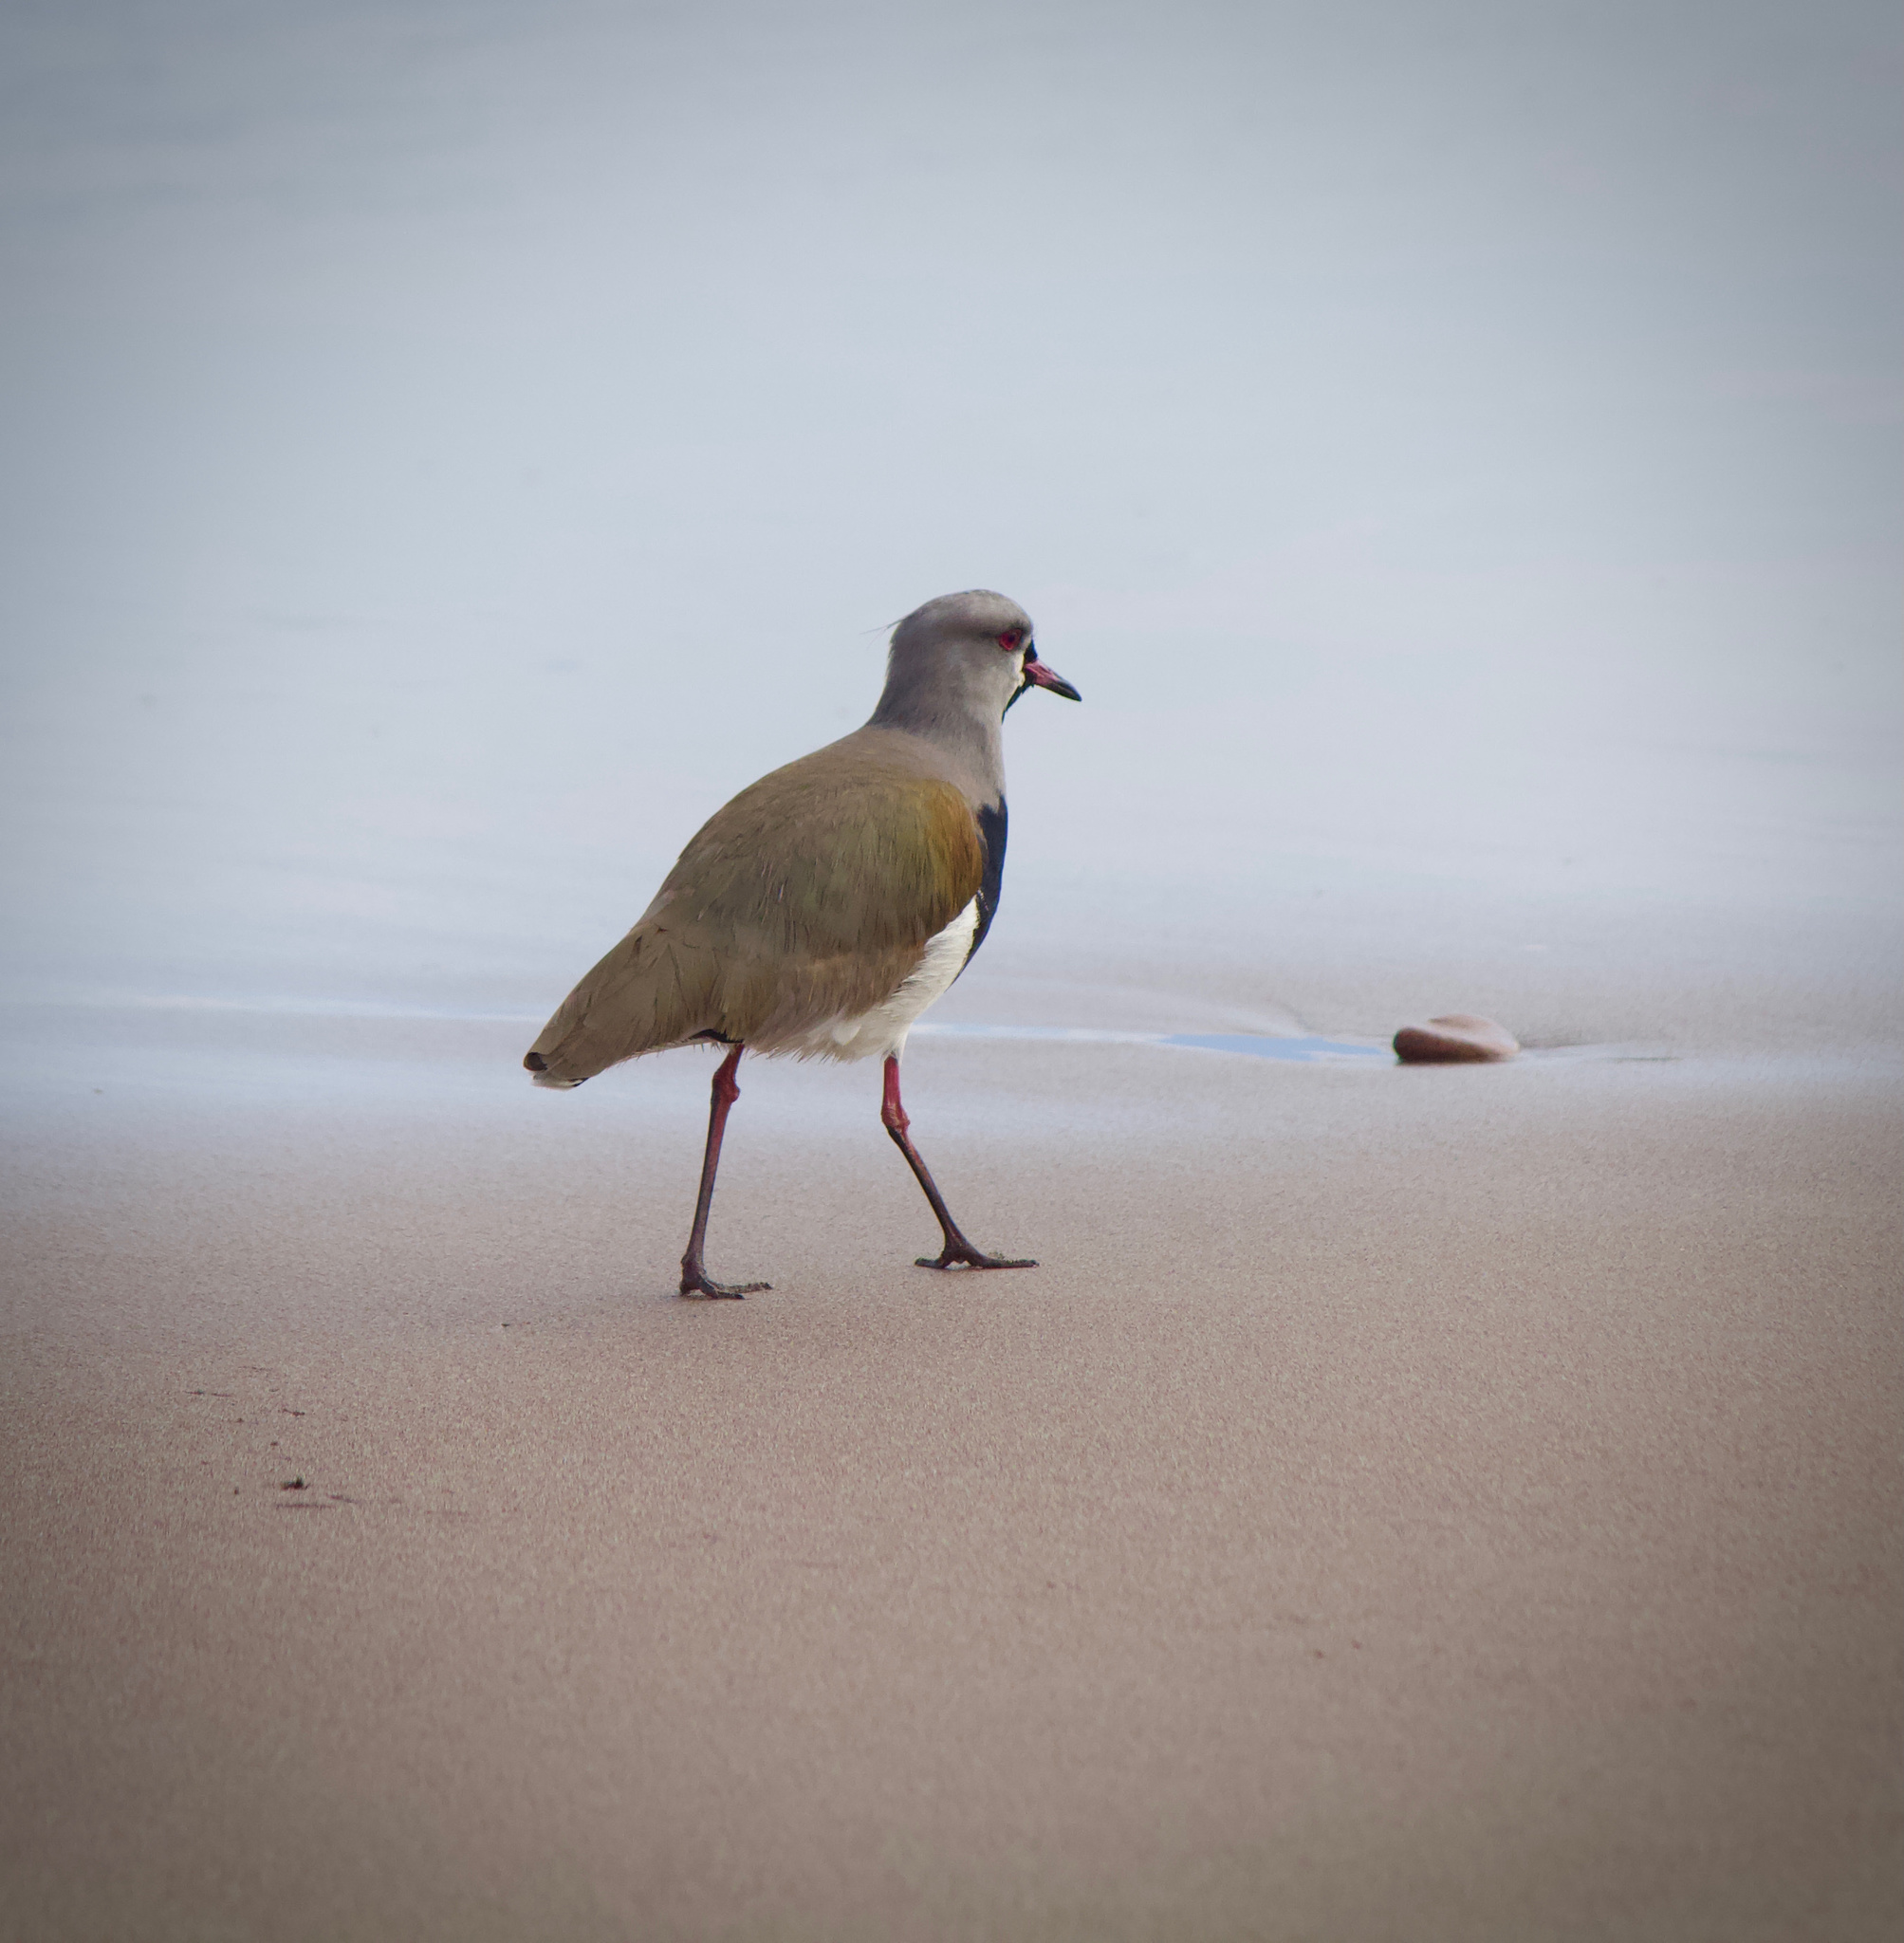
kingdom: Animalia
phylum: Chordata
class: Aves
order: Charadriiformes
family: Charadriidae
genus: Vanellus
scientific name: Vanellus chilensis
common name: Southern lapwing
